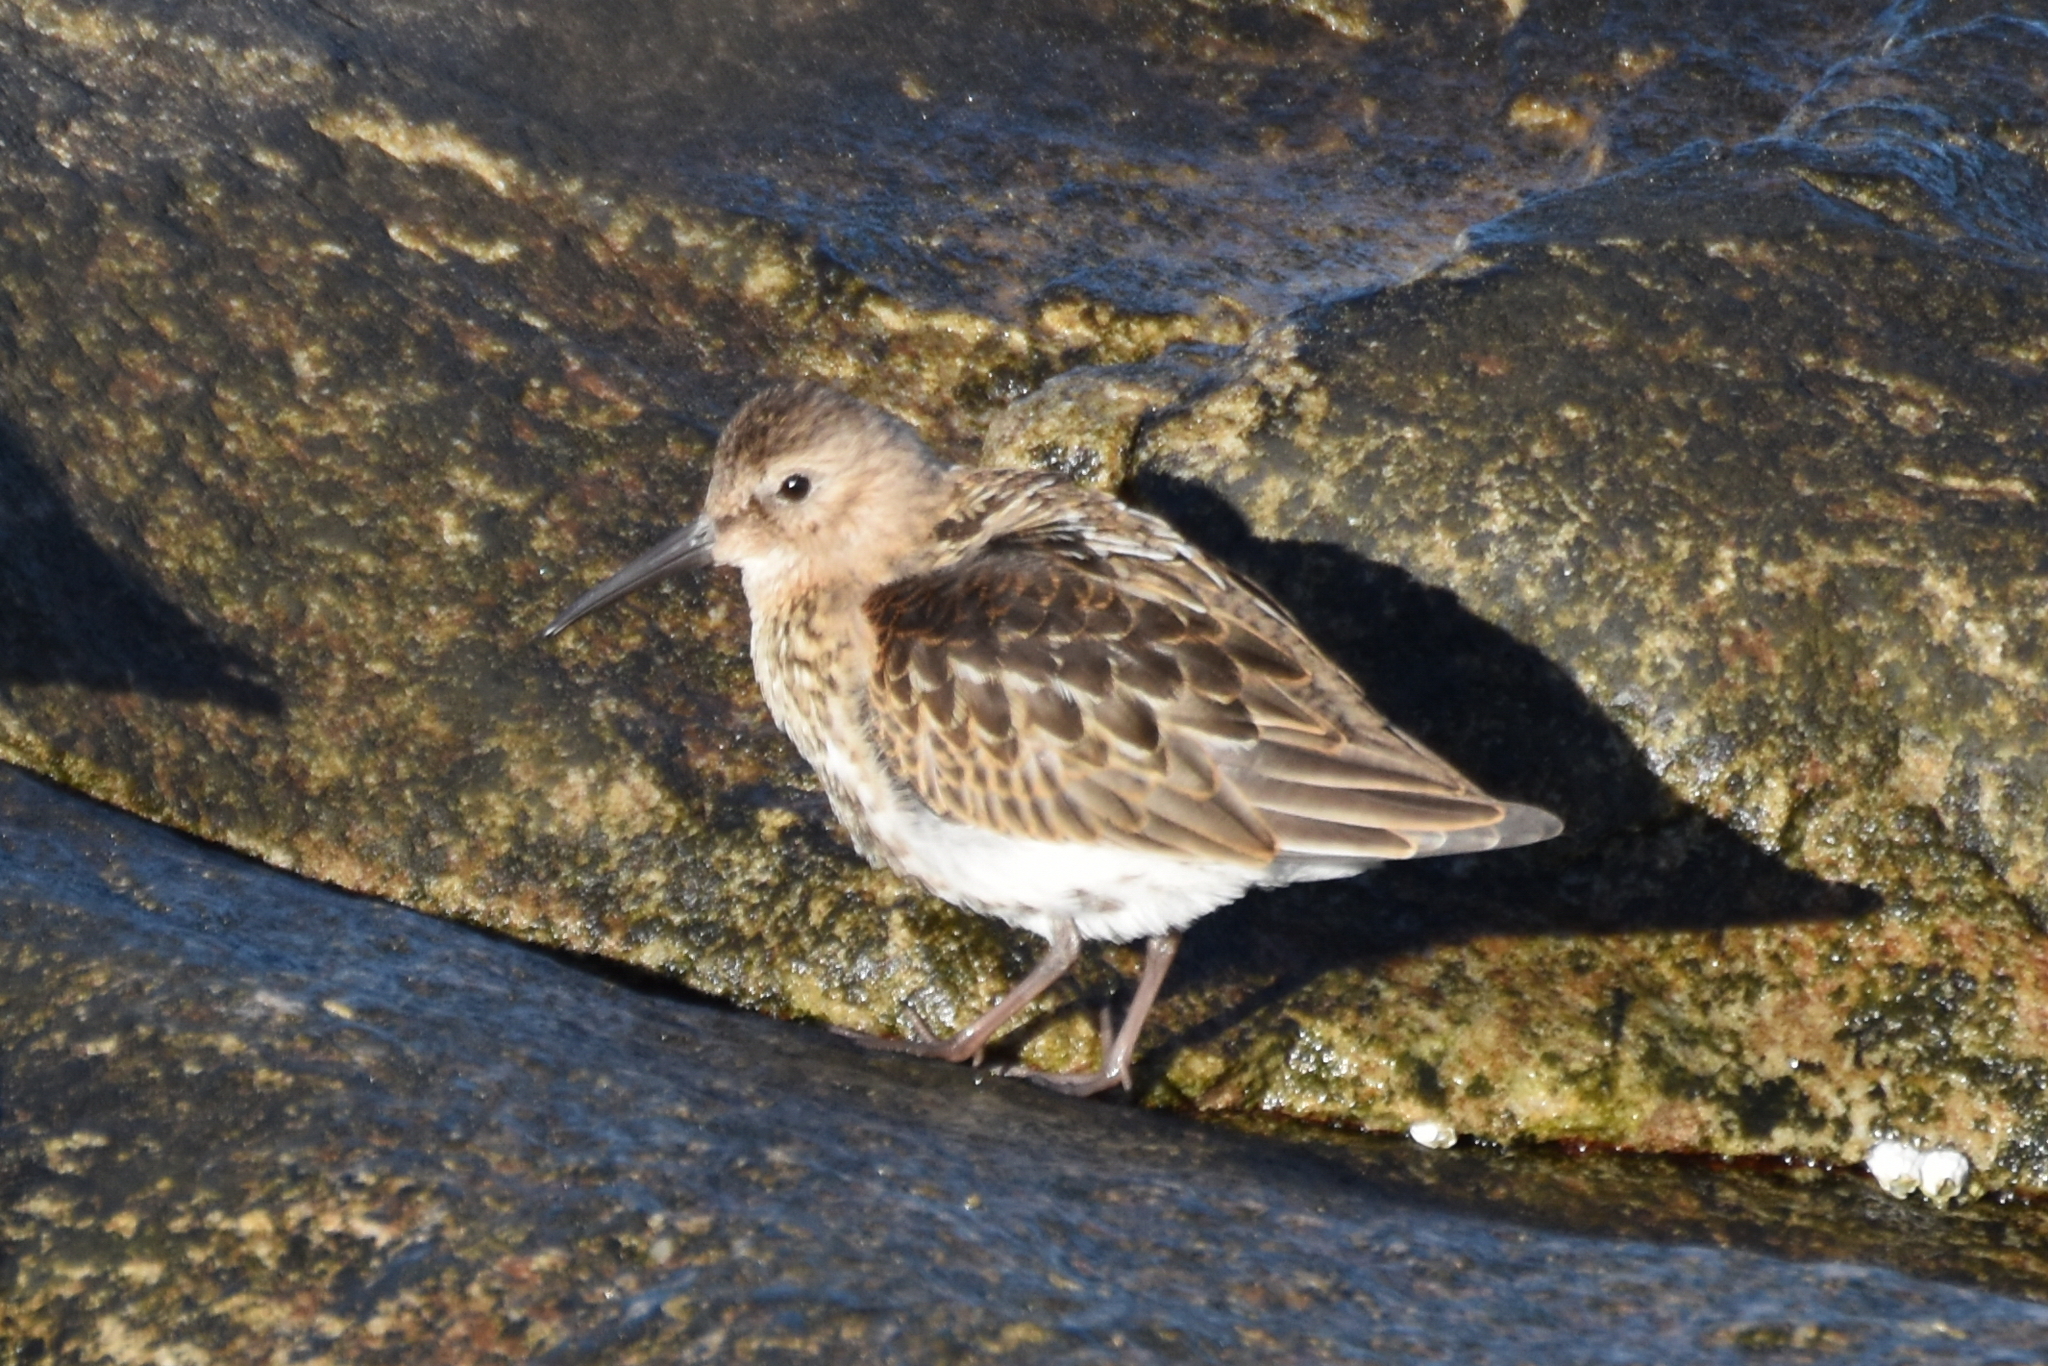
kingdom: Animalia
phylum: Chordata
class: Aves
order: Charadriiformes
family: Scolopacidae
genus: Calidris
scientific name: Calidris maritima
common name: Purple sandpiper
